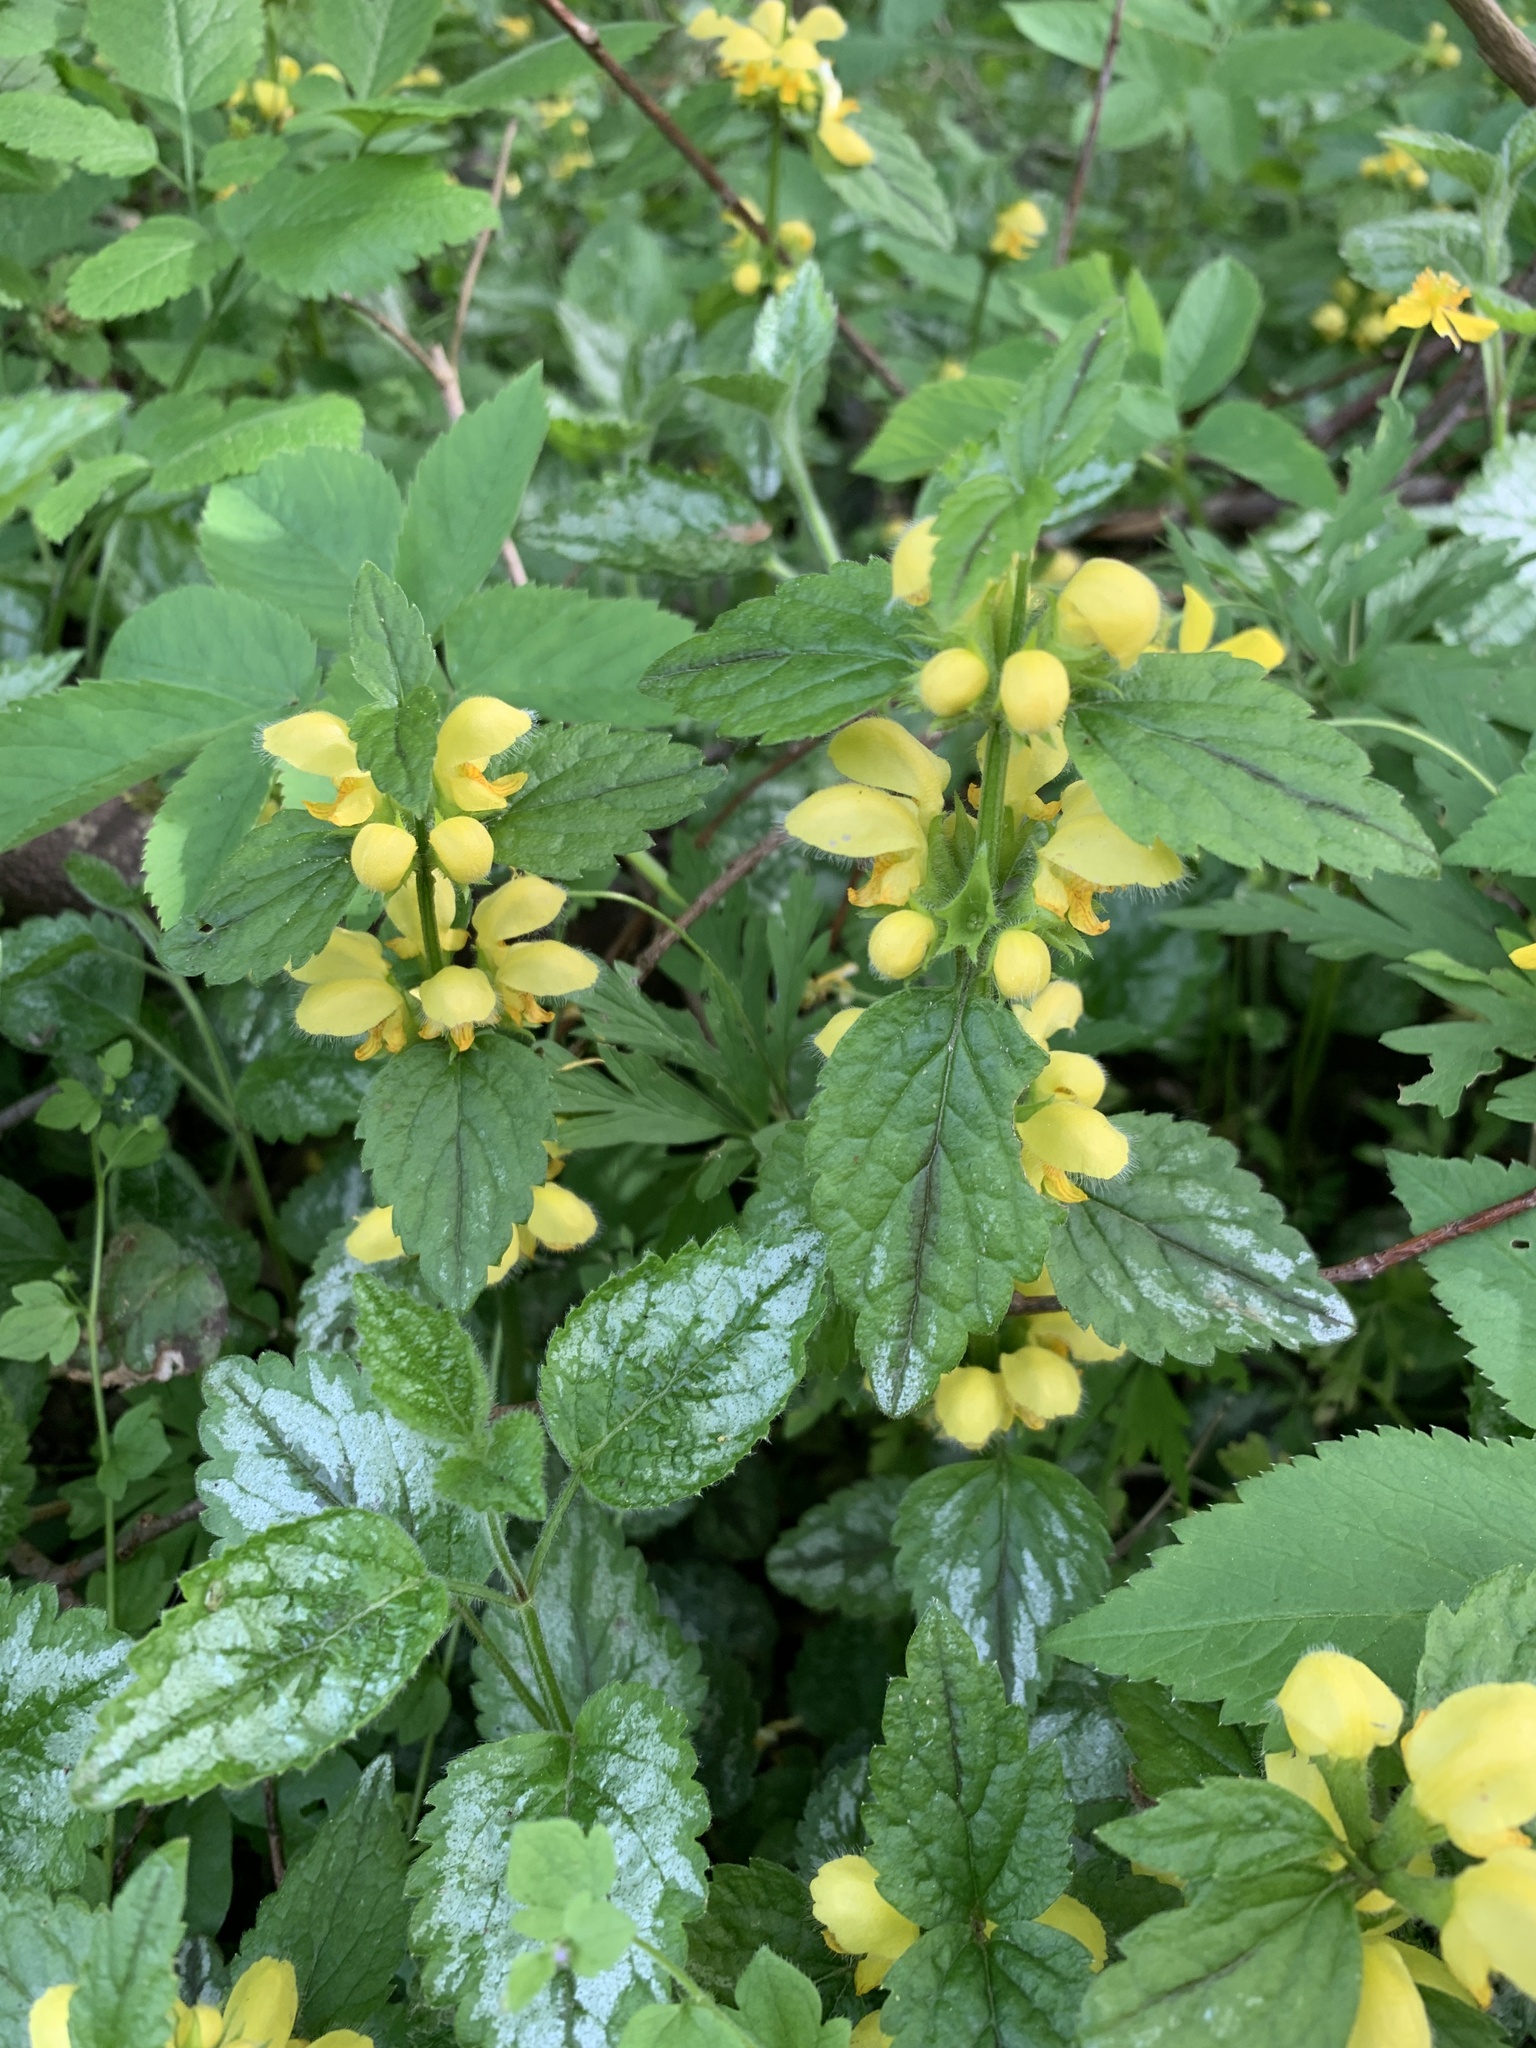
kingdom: Plantae
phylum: Tracheophyta
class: Magnoliopsida
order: Lamiales
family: Lamiaceae
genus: Lamium
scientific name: Lamium galeobdolon
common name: Yellow archangel
